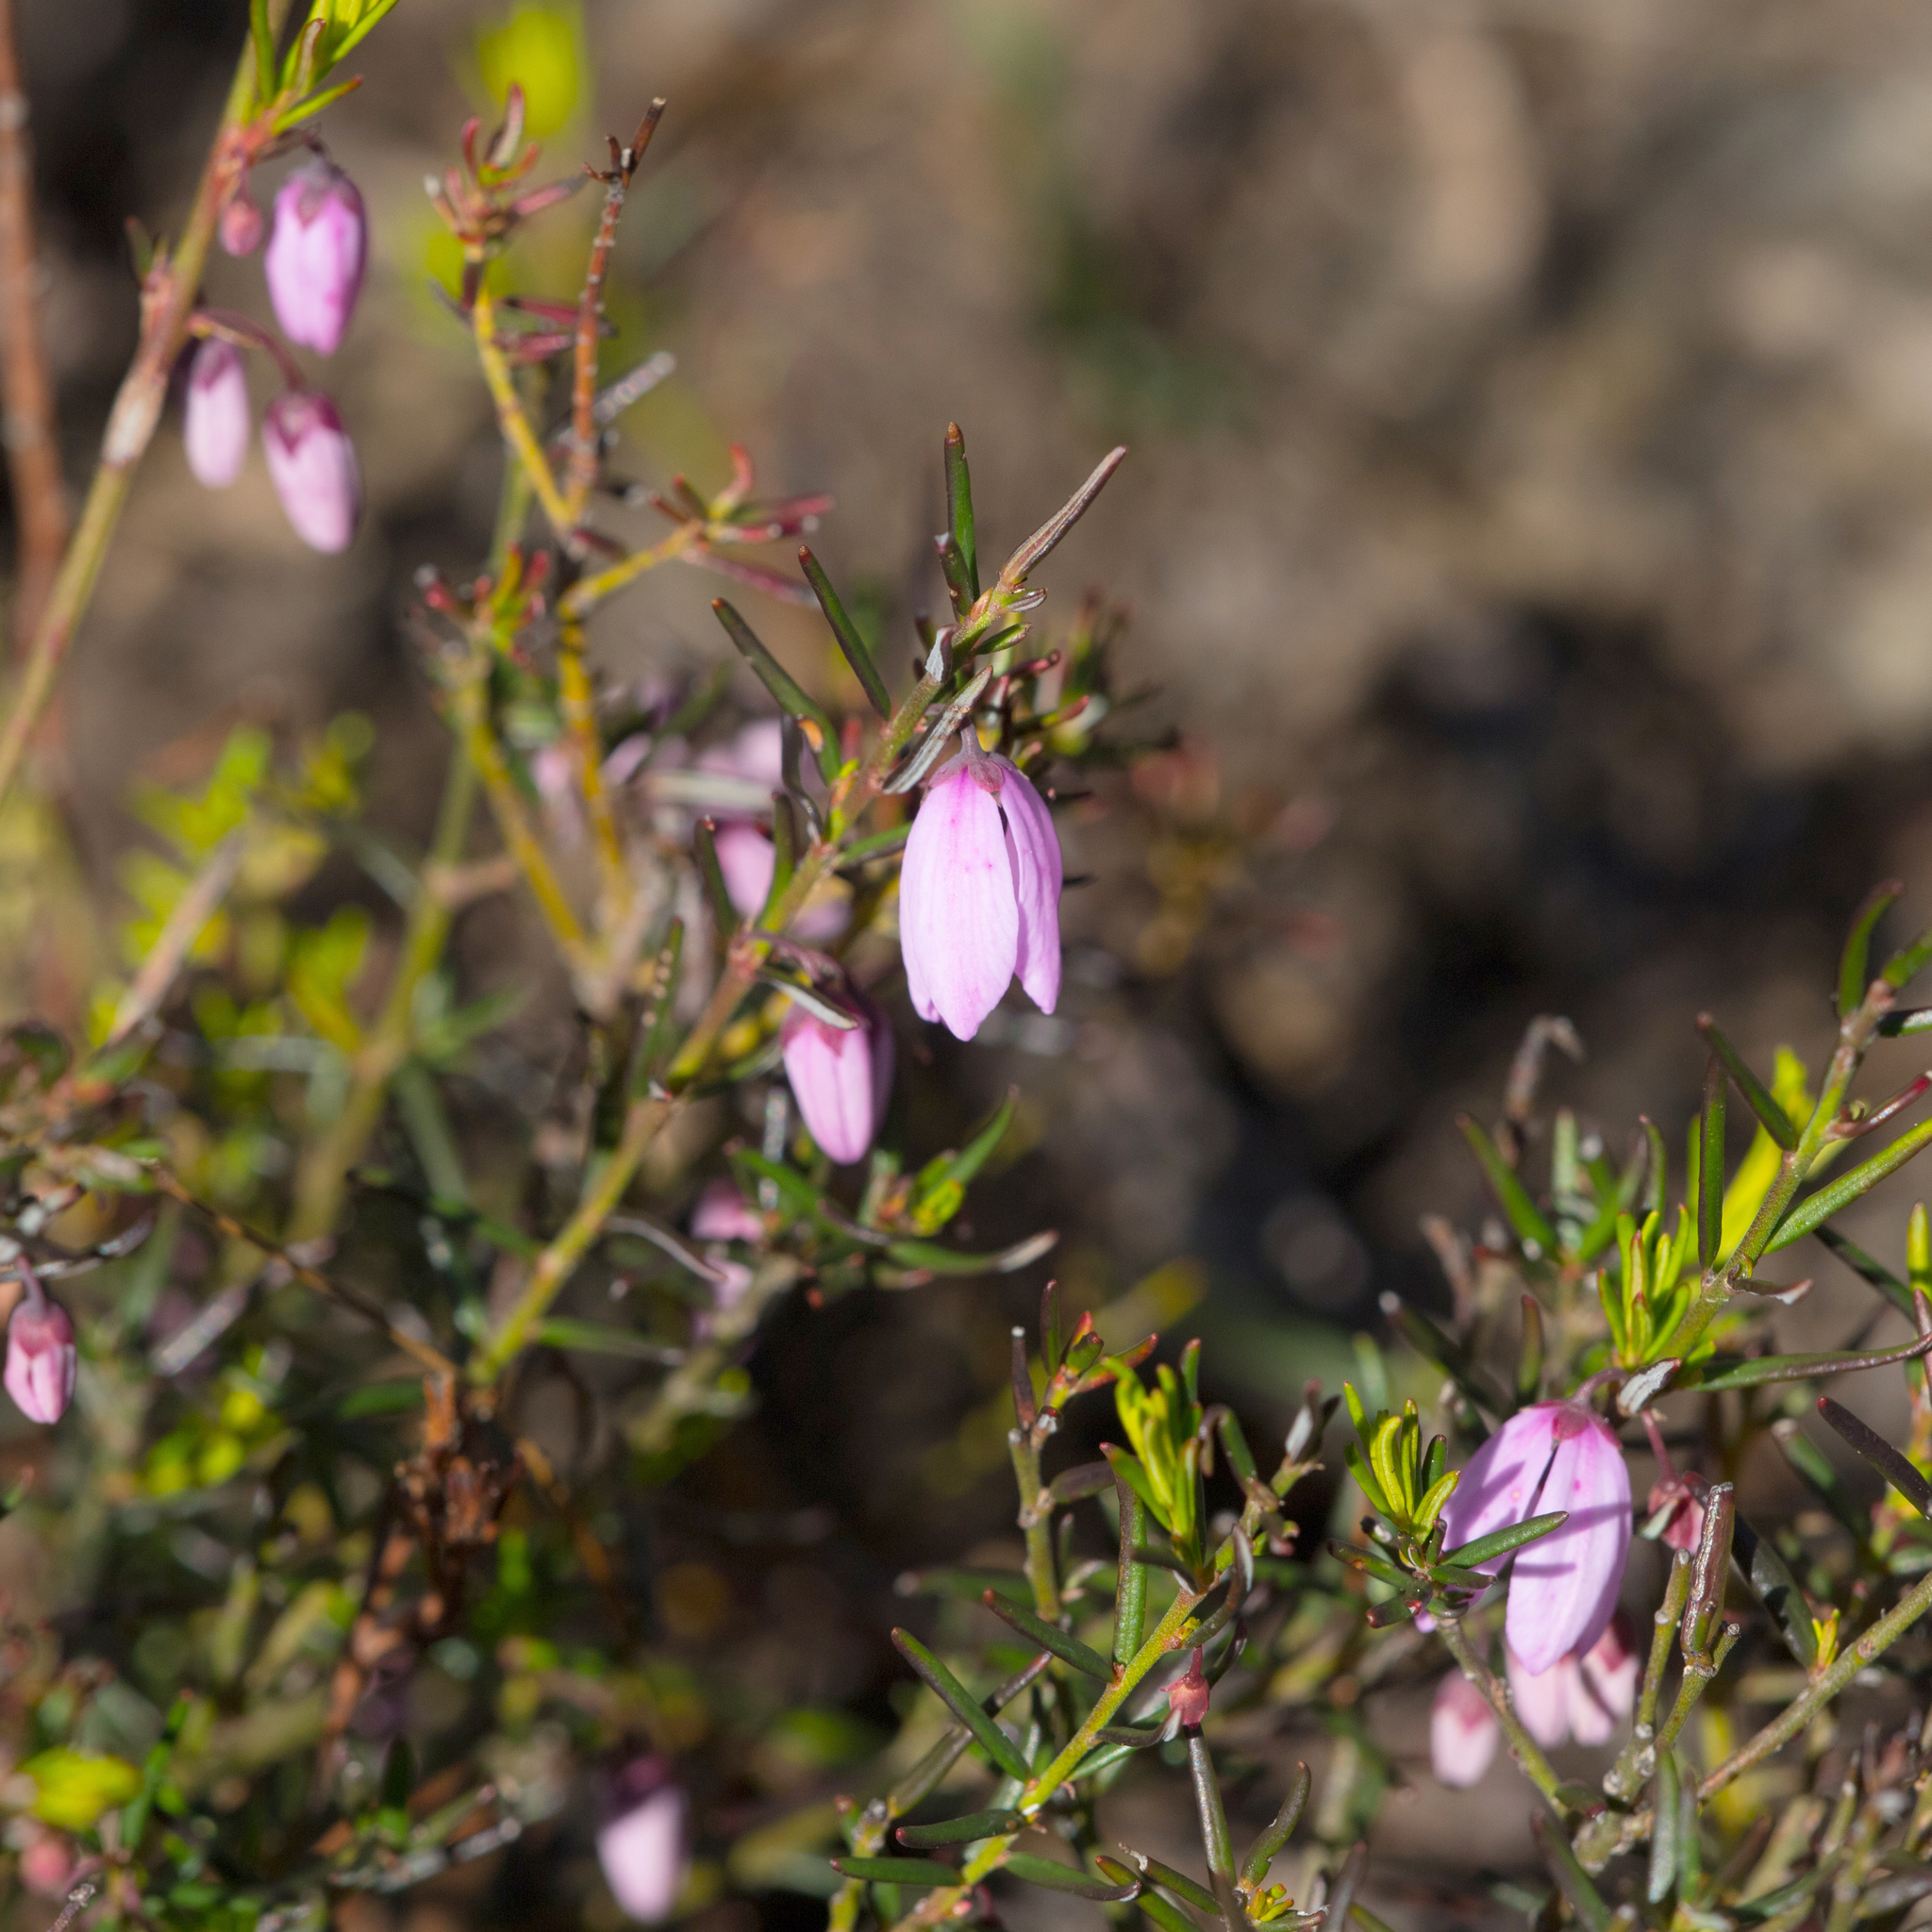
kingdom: Plantae
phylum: Tracheophyta
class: Magnoliopsida
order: Oxalidales
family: Elaeocarpaceae
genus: Tetratheca
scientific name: Tetratheca pilosa
